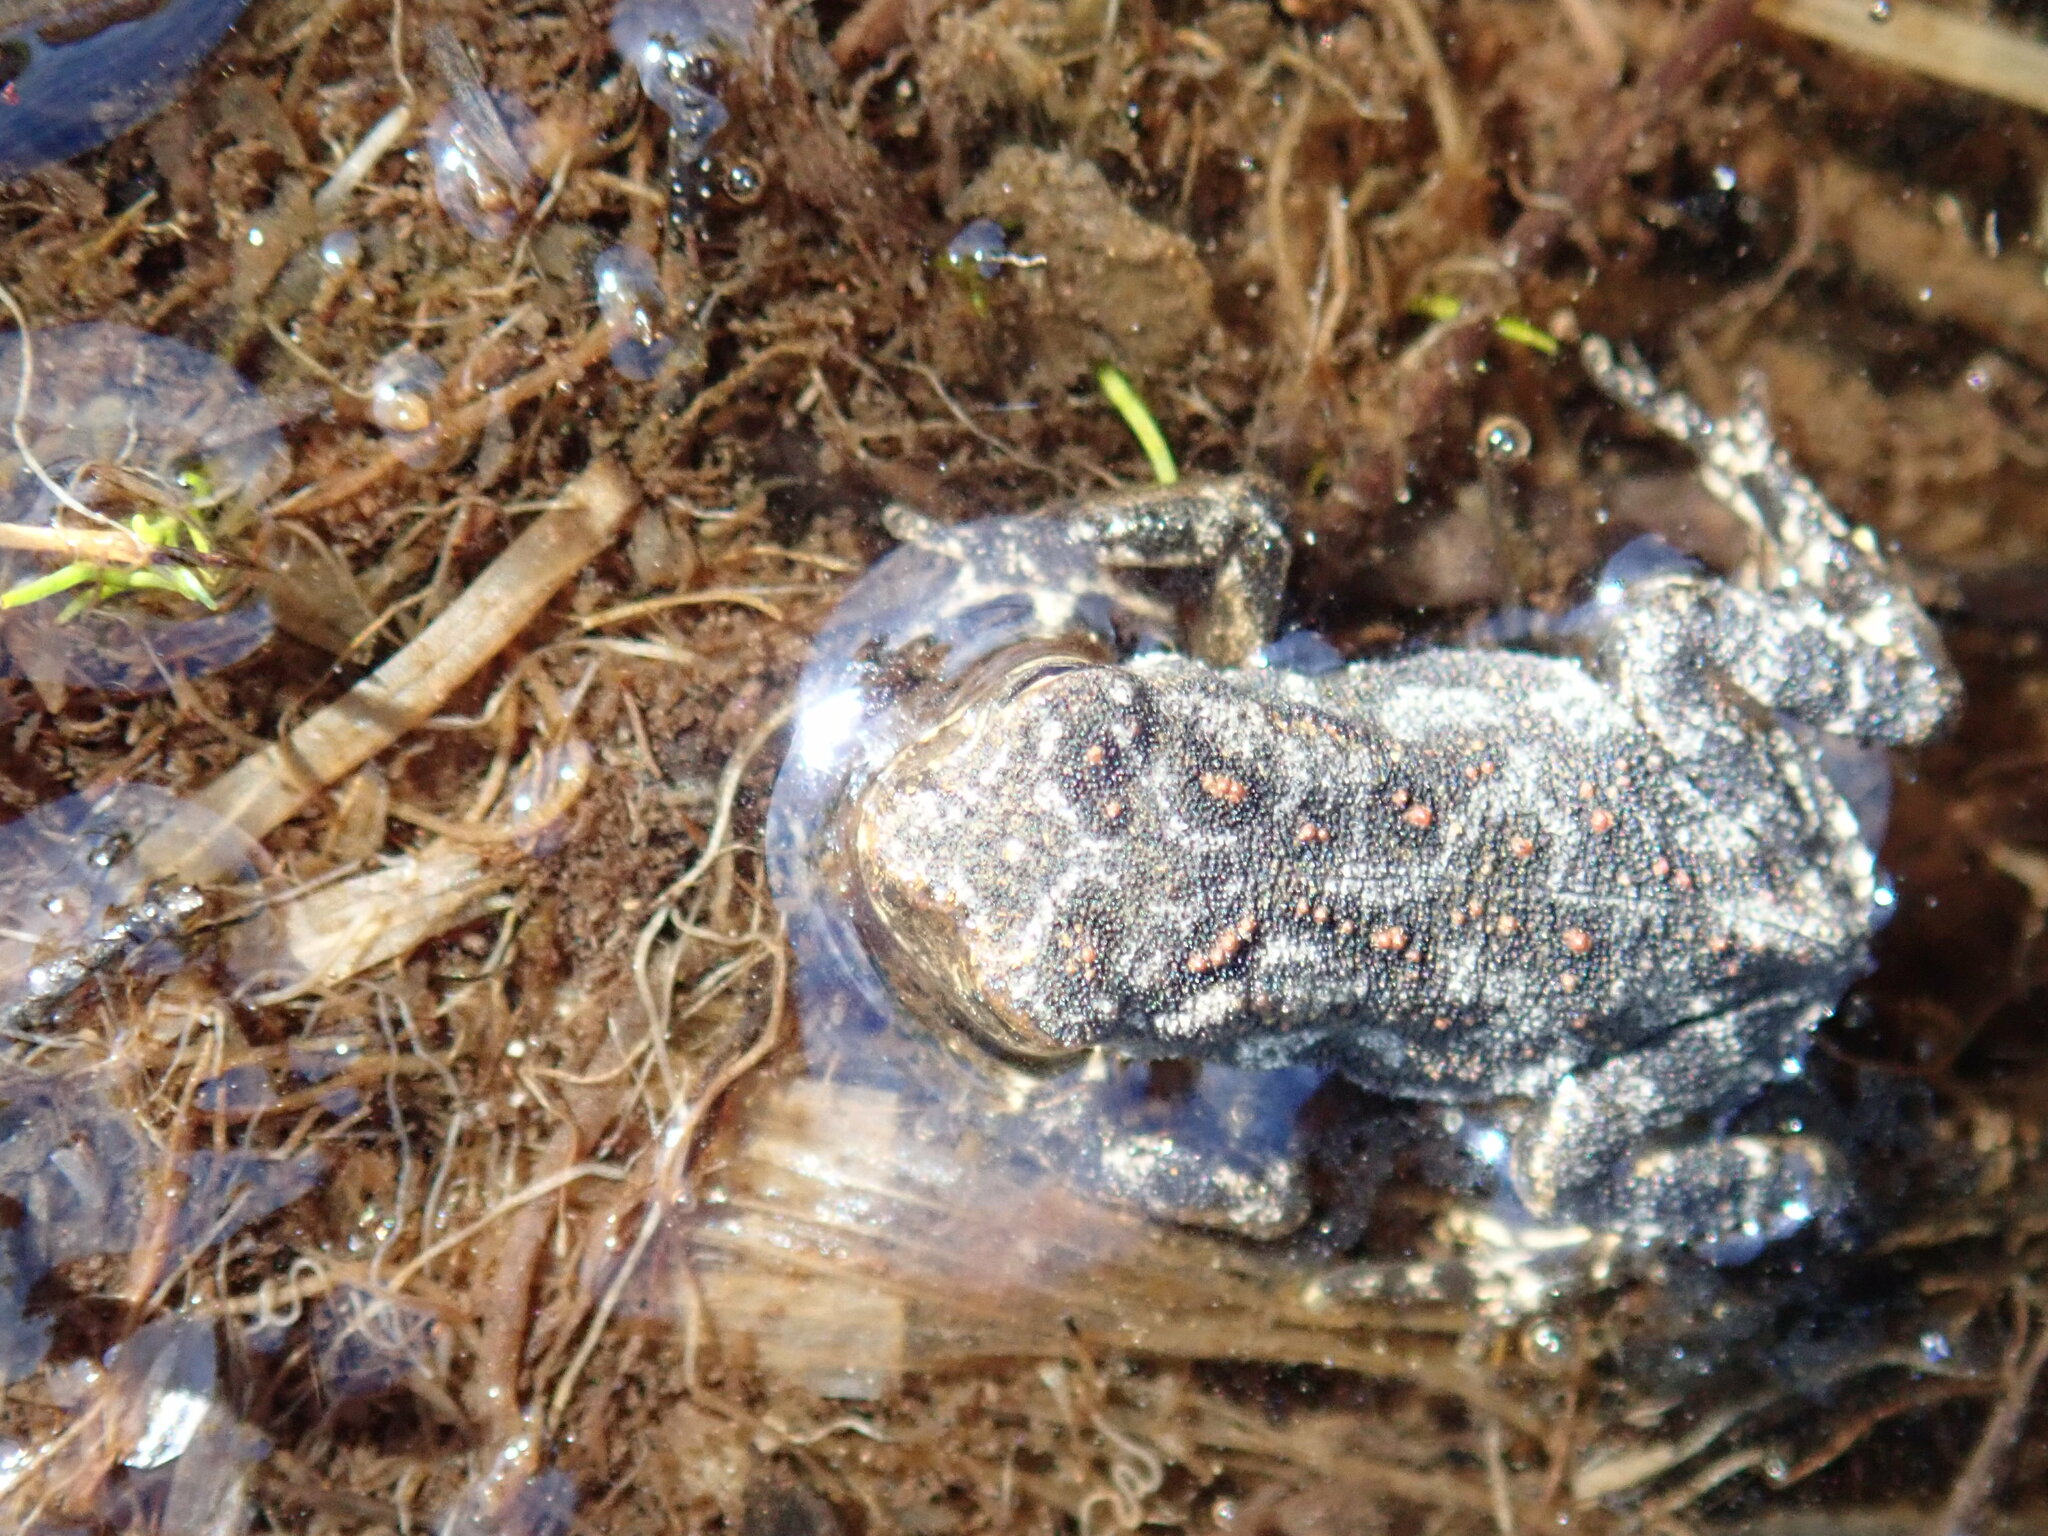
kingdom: Animalia
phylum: Chordata
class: Amphibia
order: Anura
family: Bufonidae
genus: Anaxyrus
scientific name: Anaxyrus americanus
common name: American toad
